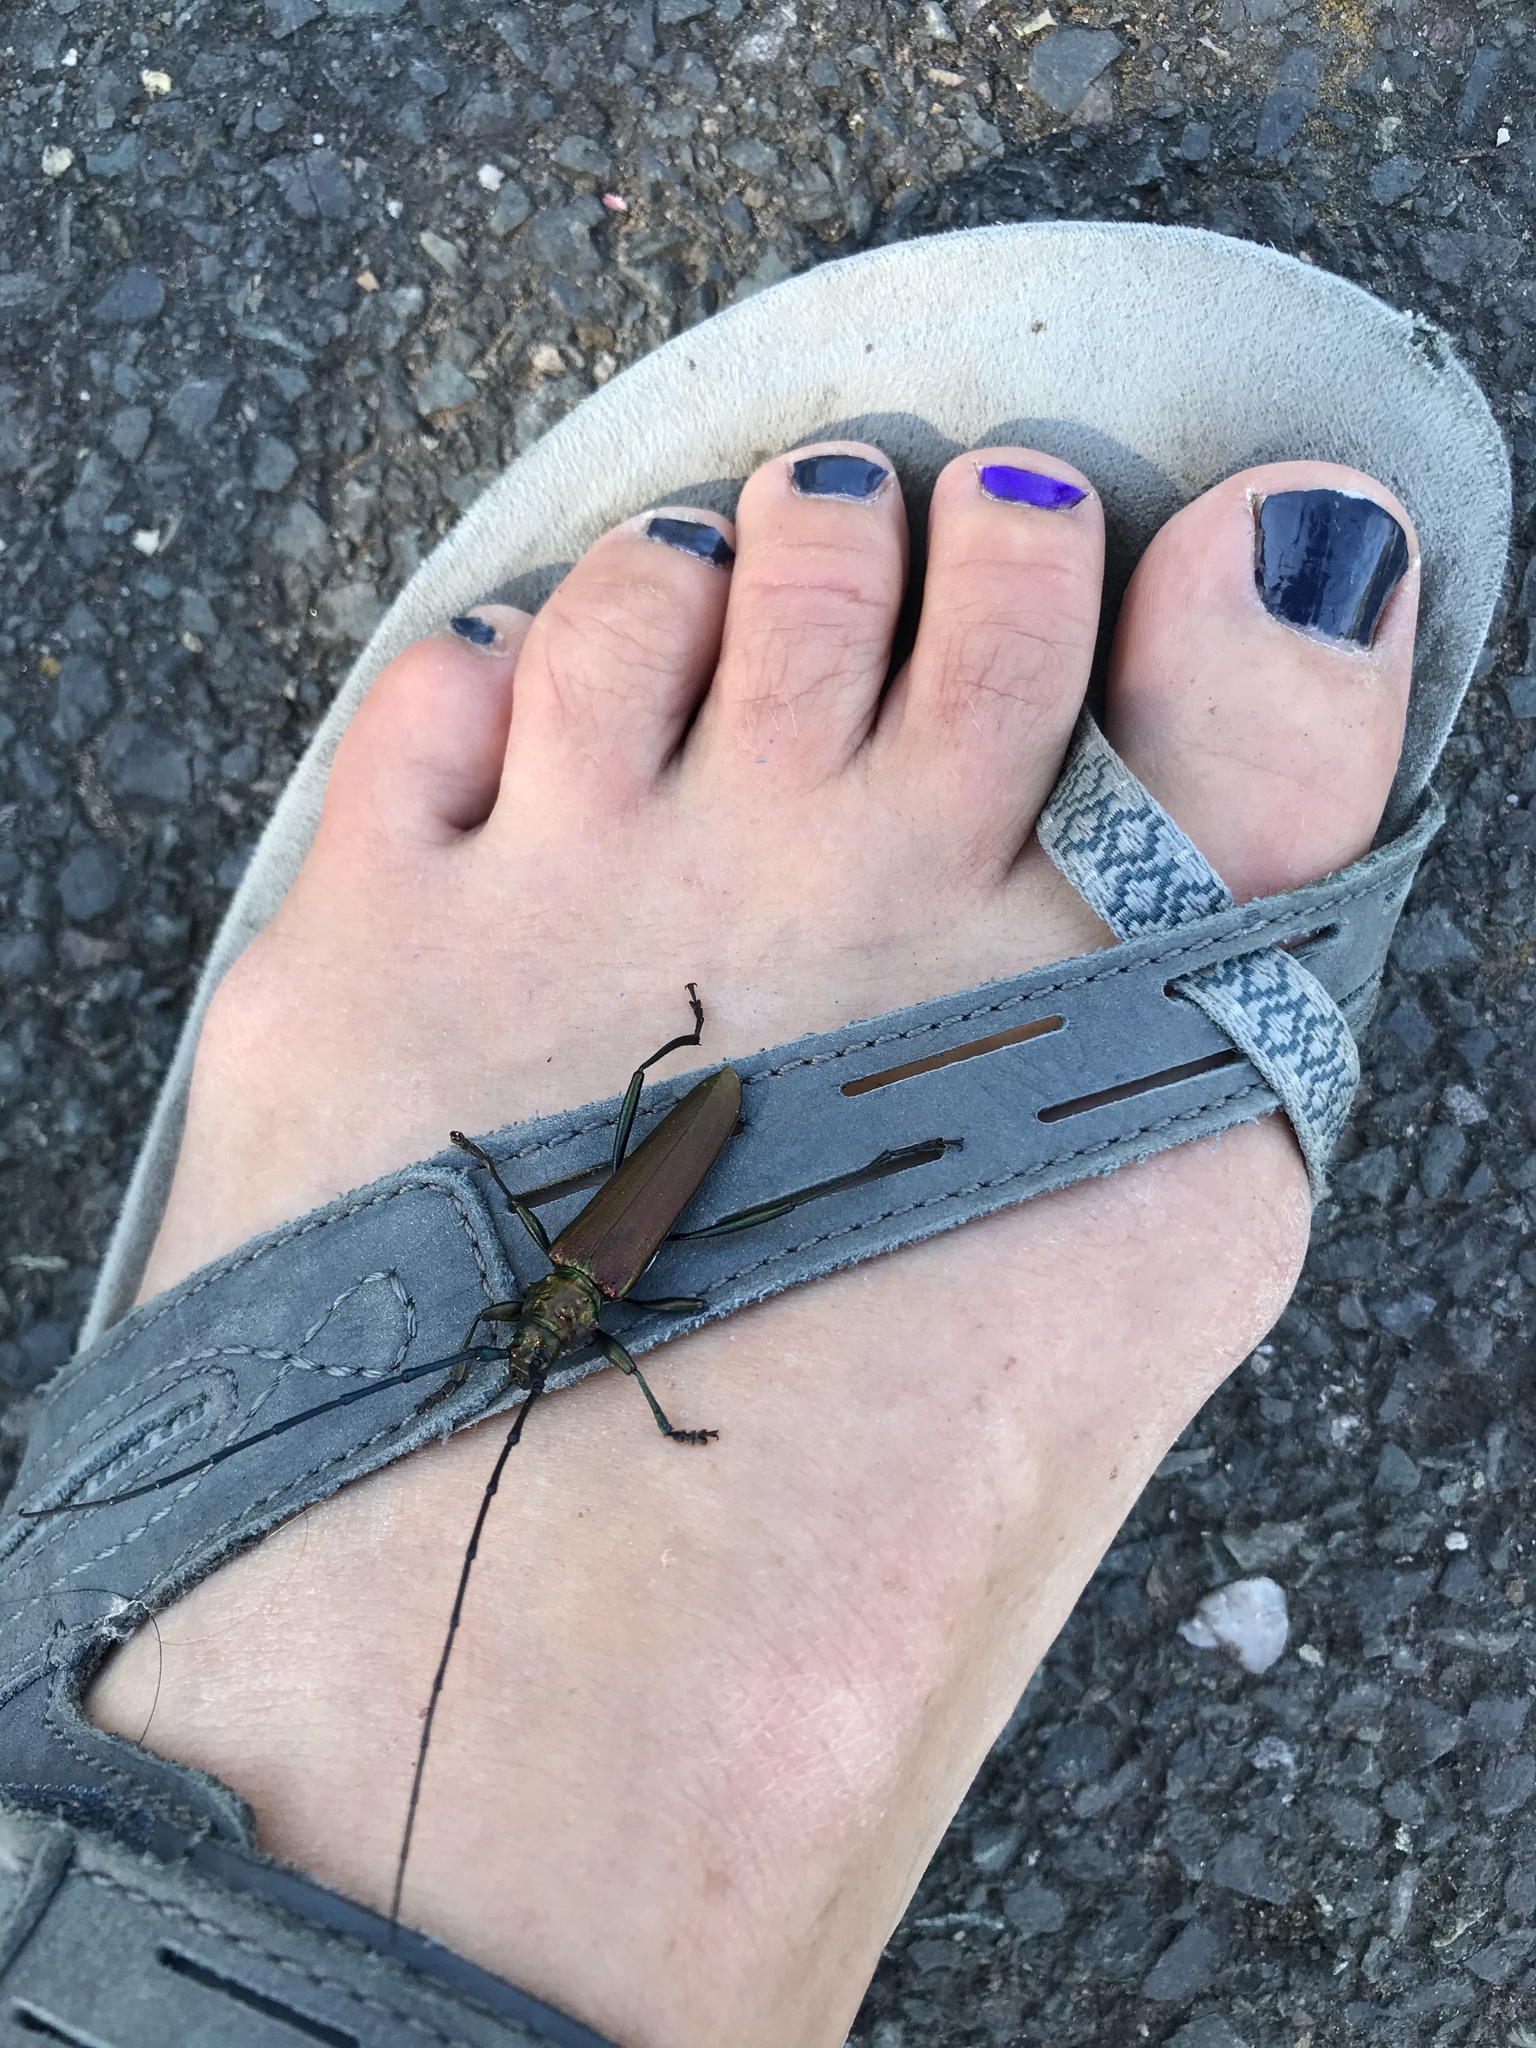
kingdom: Animalia
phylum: Arthropoda
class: Insecta
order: Coleoptera
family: Cerambycidae
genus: Aromia
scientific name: Aromia moschata
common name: Musk beetle
